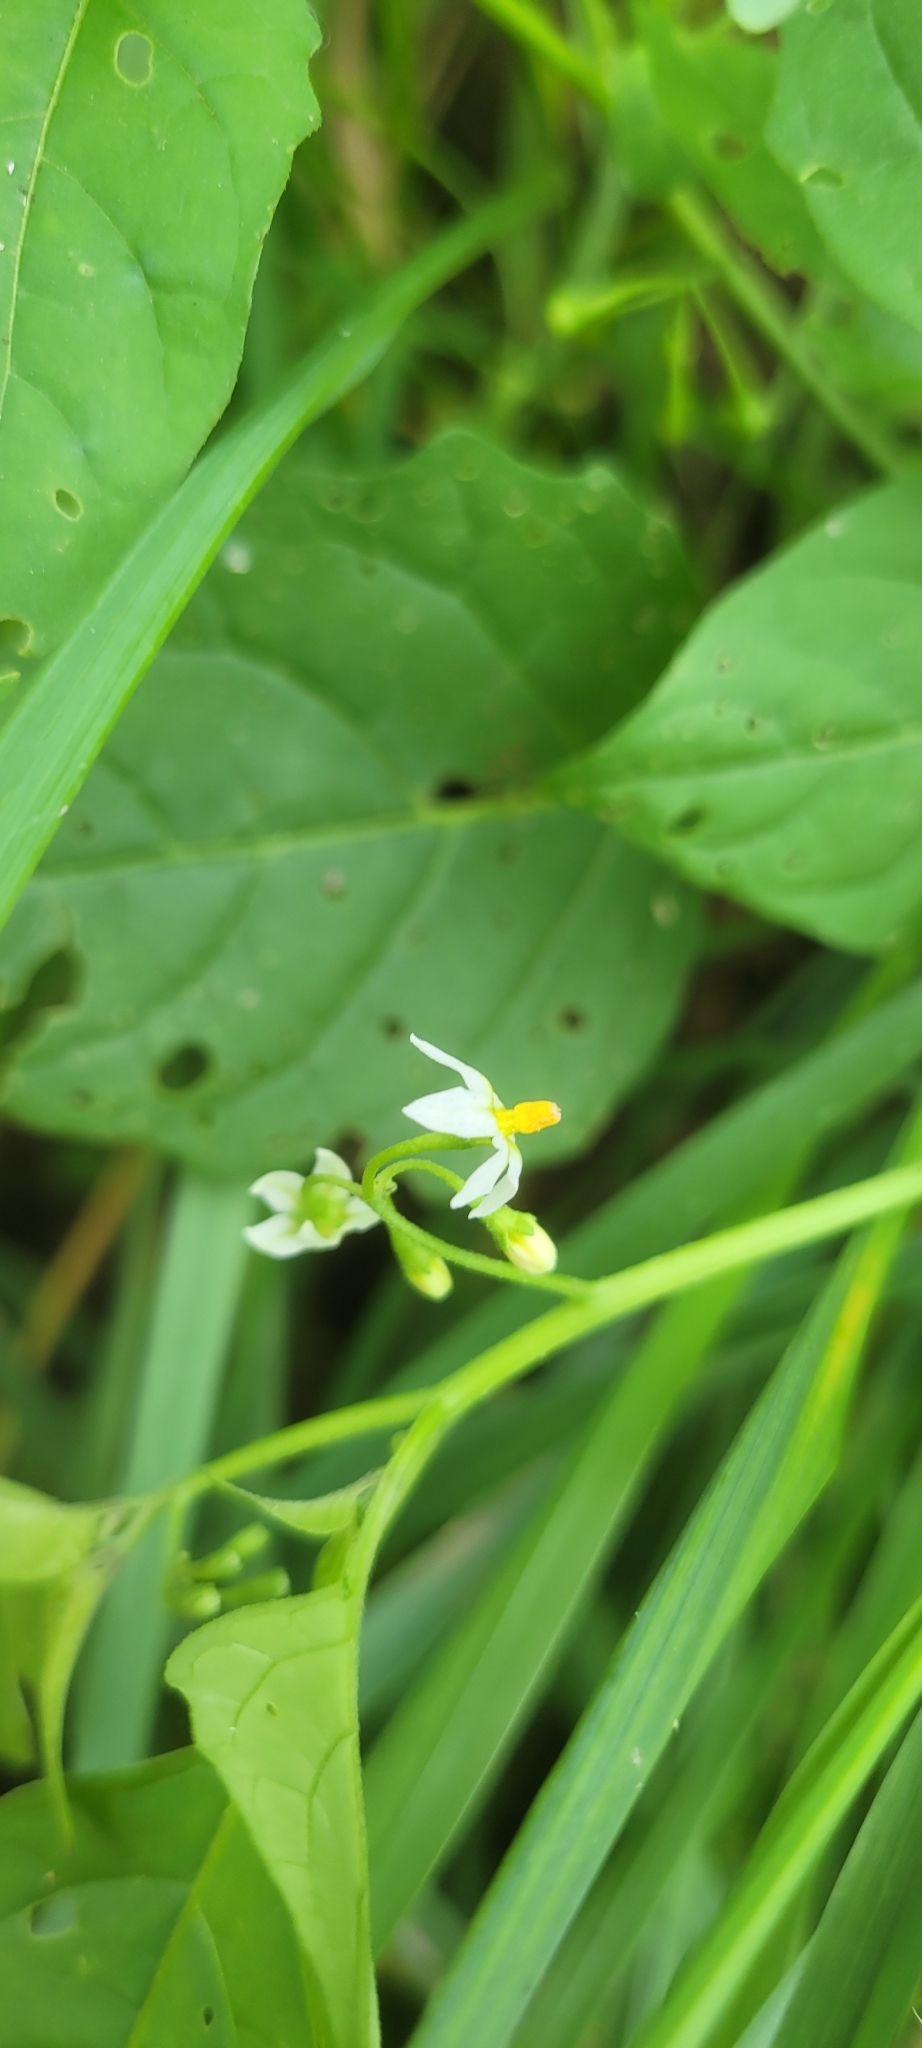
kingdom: Plantae
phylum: Tracheophyta
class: Magnoliopsida
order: Solanales
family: Solanaceae
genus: Solanum
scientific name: Solanum emulans
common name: Eastern black nightshade
